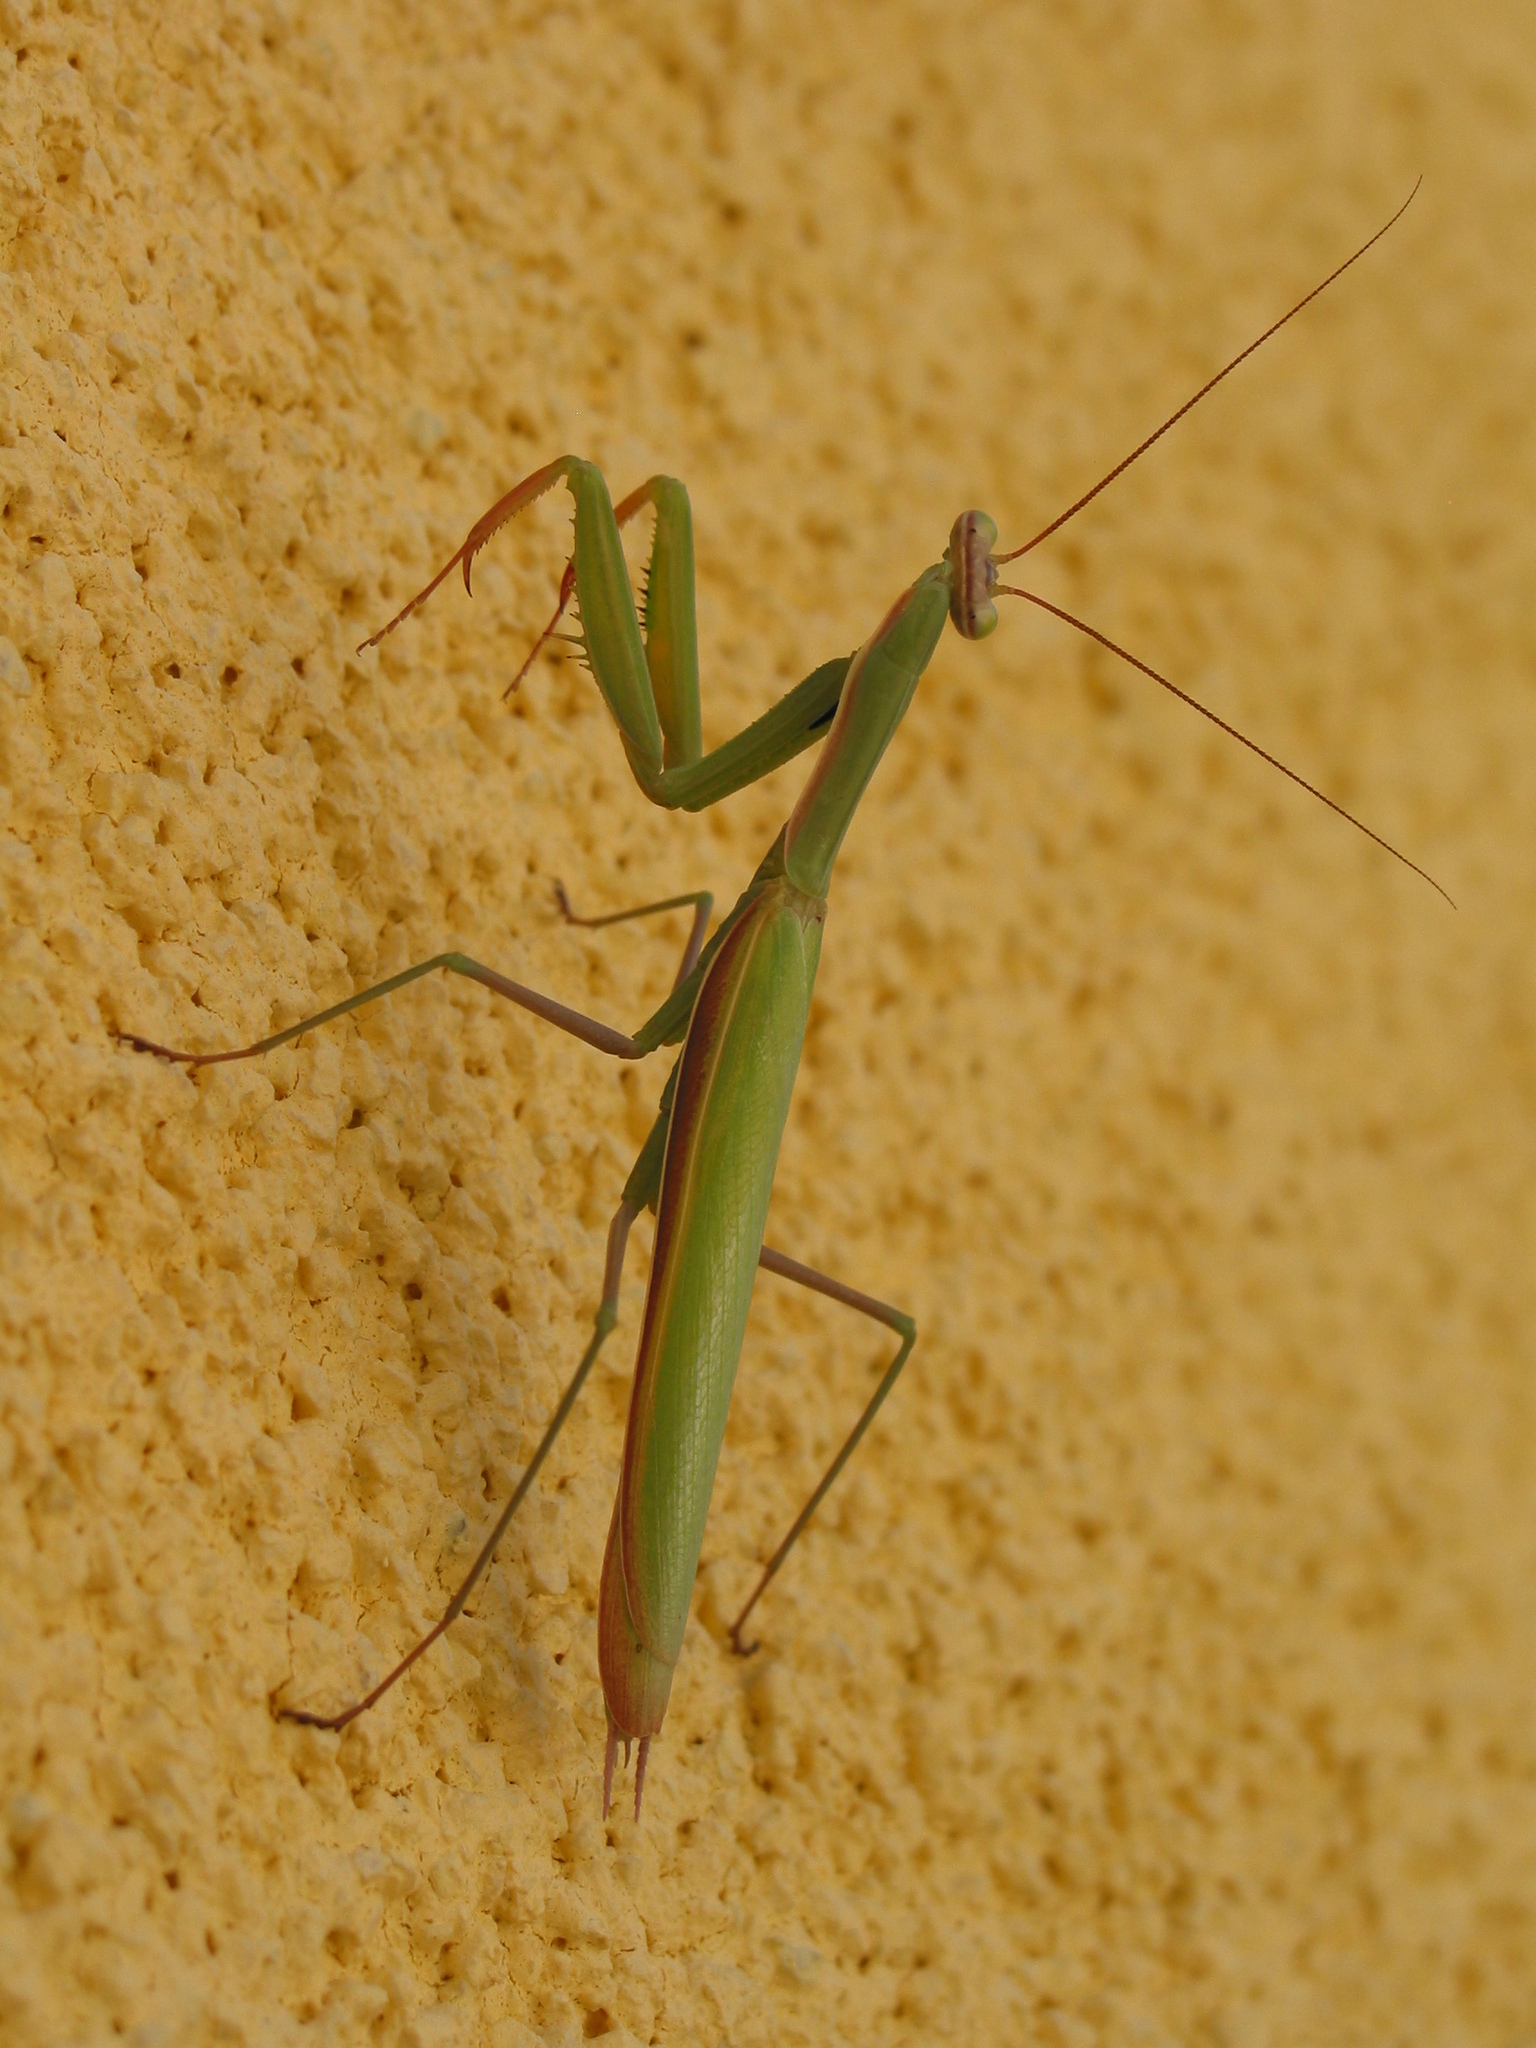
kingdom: Animalia
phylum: Arthropoda
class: Insecta
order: Mantodea
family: Mantidae
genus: Mantis
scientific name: Mantis religiosa
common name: Praying mantis
